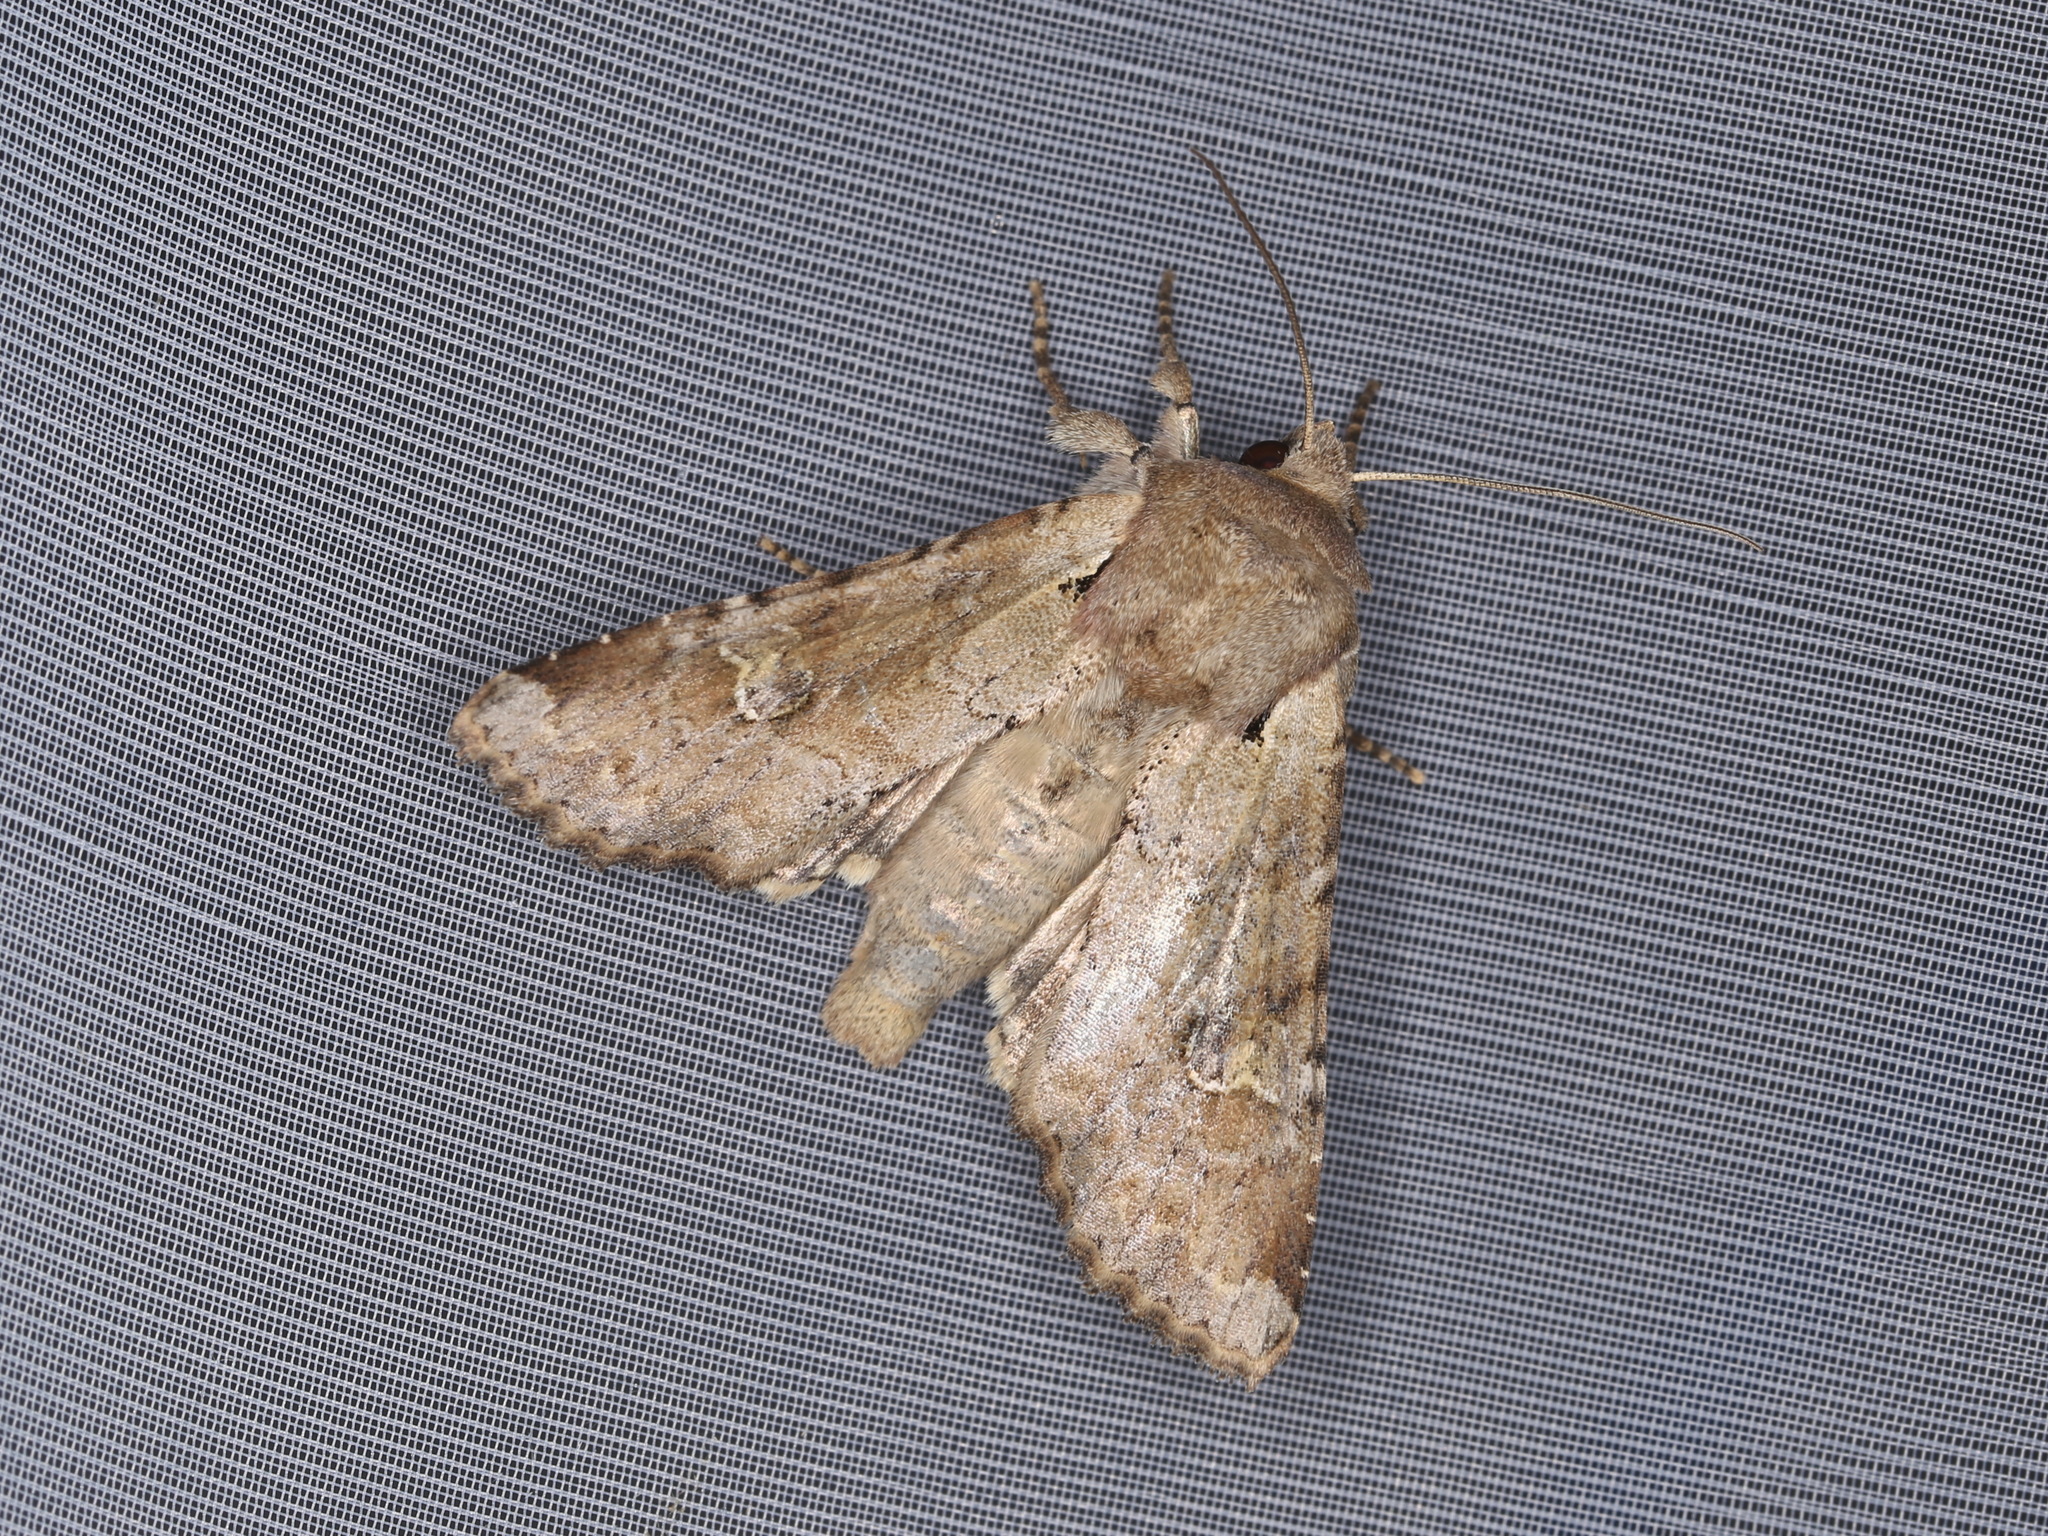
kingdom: Animalia
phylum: Arthropoda
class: Insecta
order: Lepidoptera
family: Noctuidae
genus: Apamea
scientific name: Apamea sordens
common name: Rustic shoulder-knot
